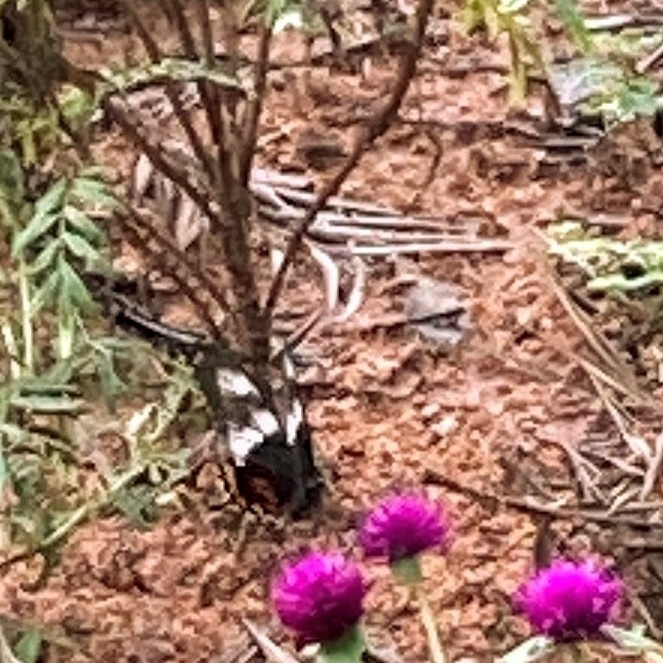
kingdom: Animalia
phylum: Arthropoda
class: Insecta
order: Lepidoptera
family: Papilionidae
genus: Papilio
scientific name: Papilio polytes
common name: Common mormon
